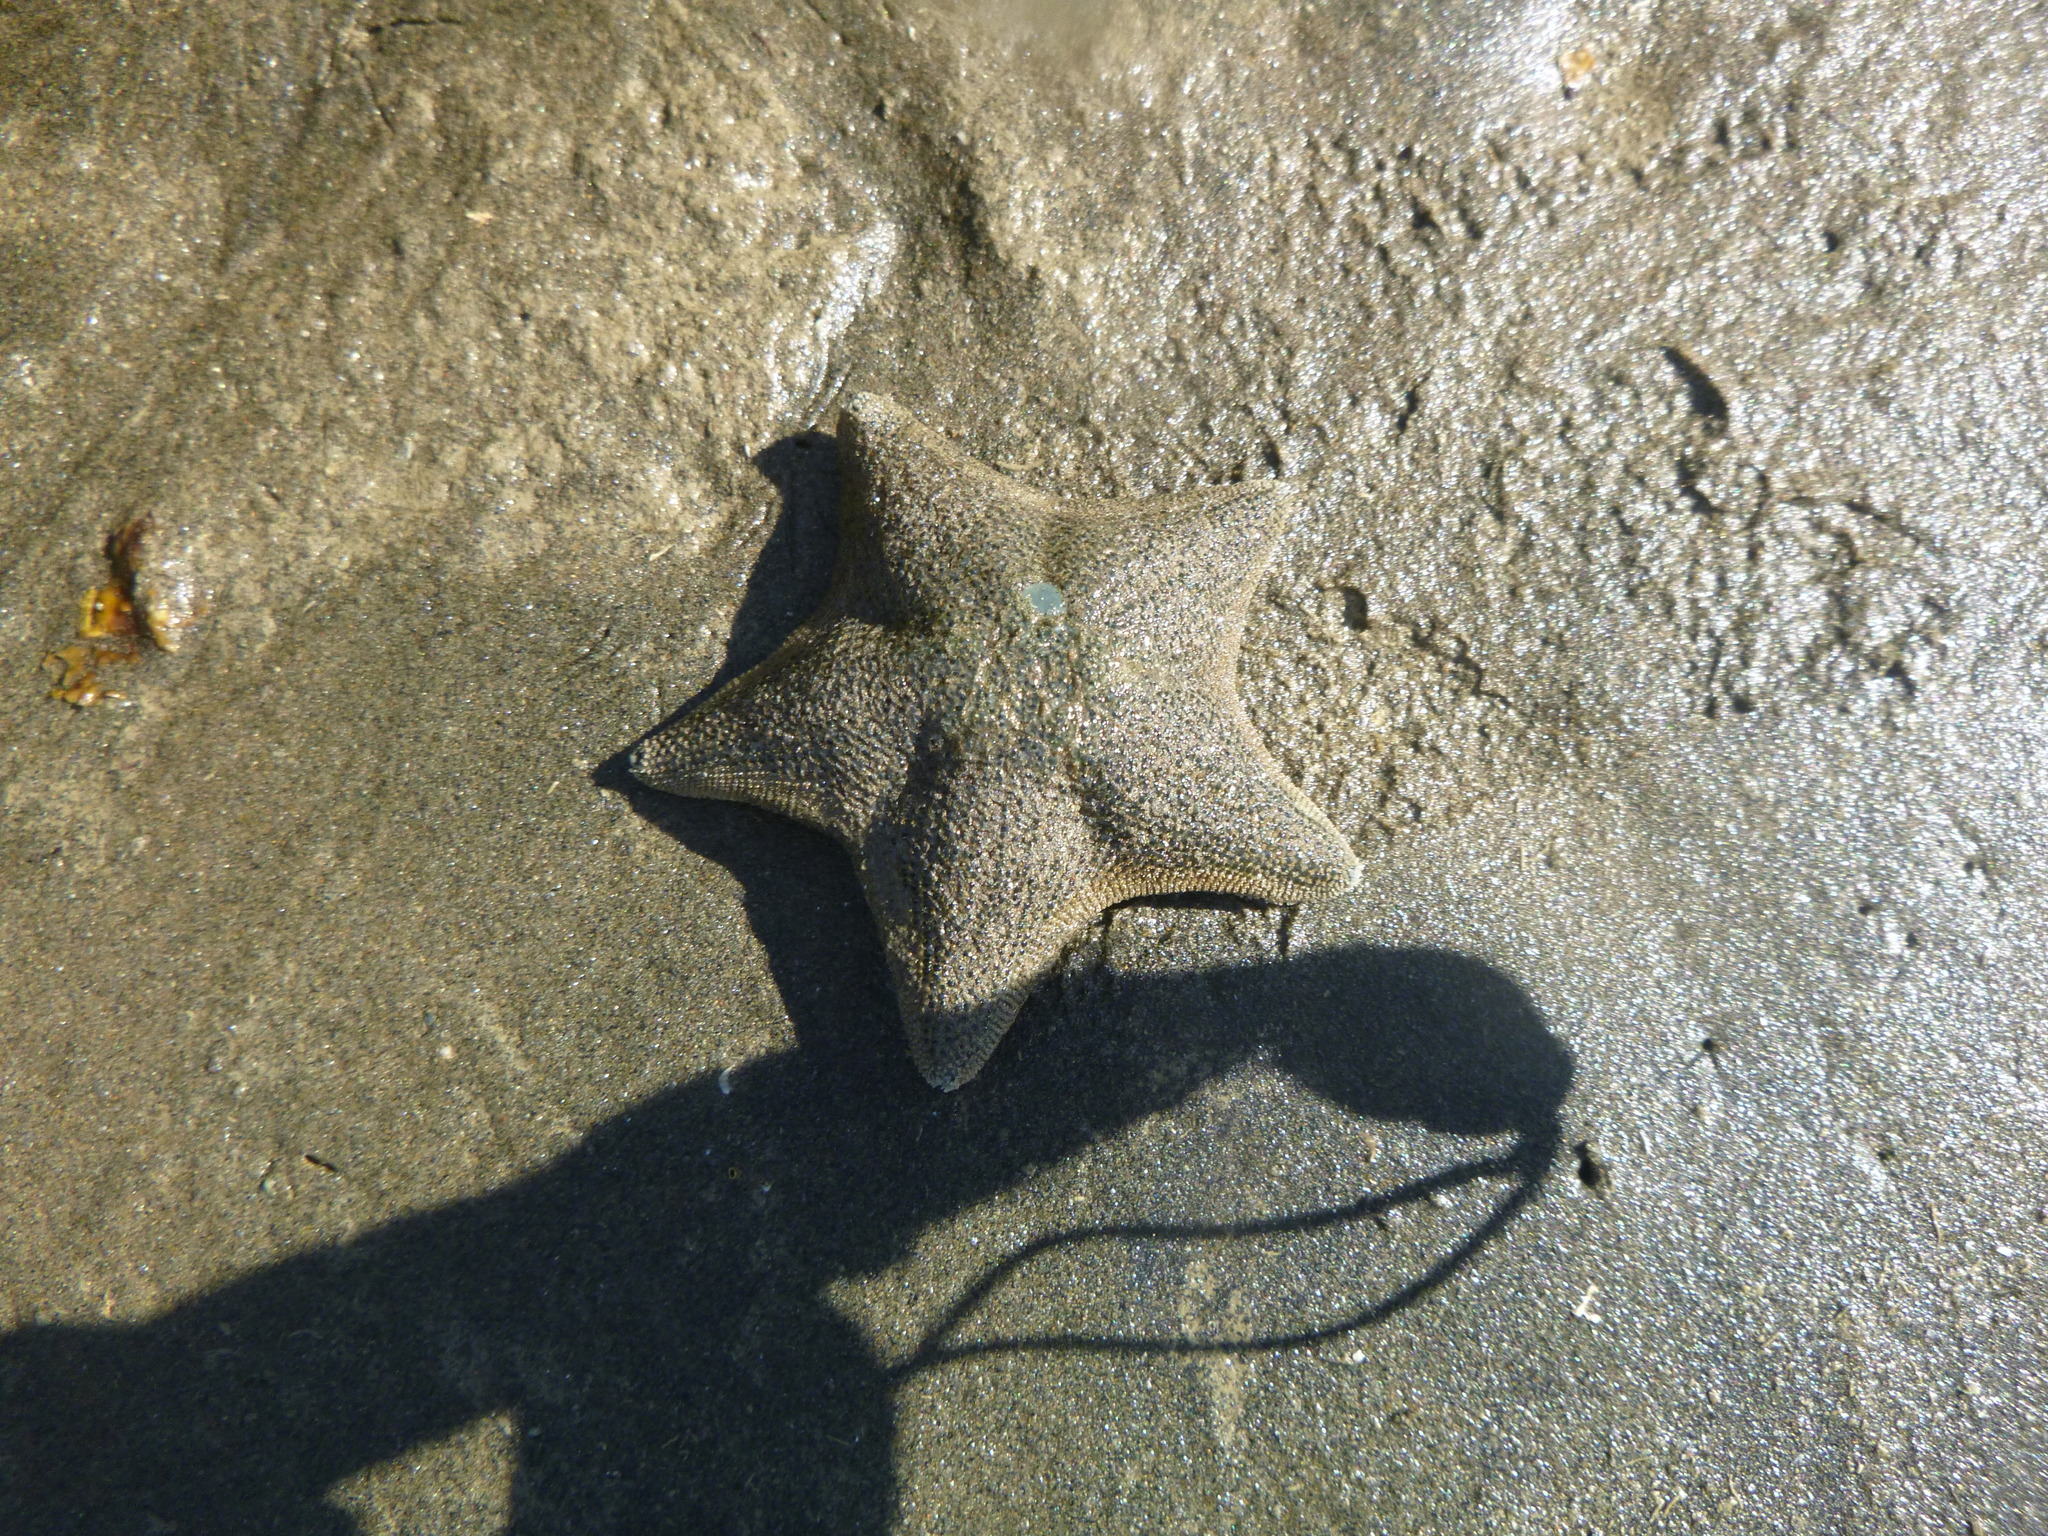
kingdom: Animalia
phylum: Echinodermata
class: Asteroidea
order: Valvatida
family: Asterinidae
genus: Patiriella
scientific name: Patiriella regularis
